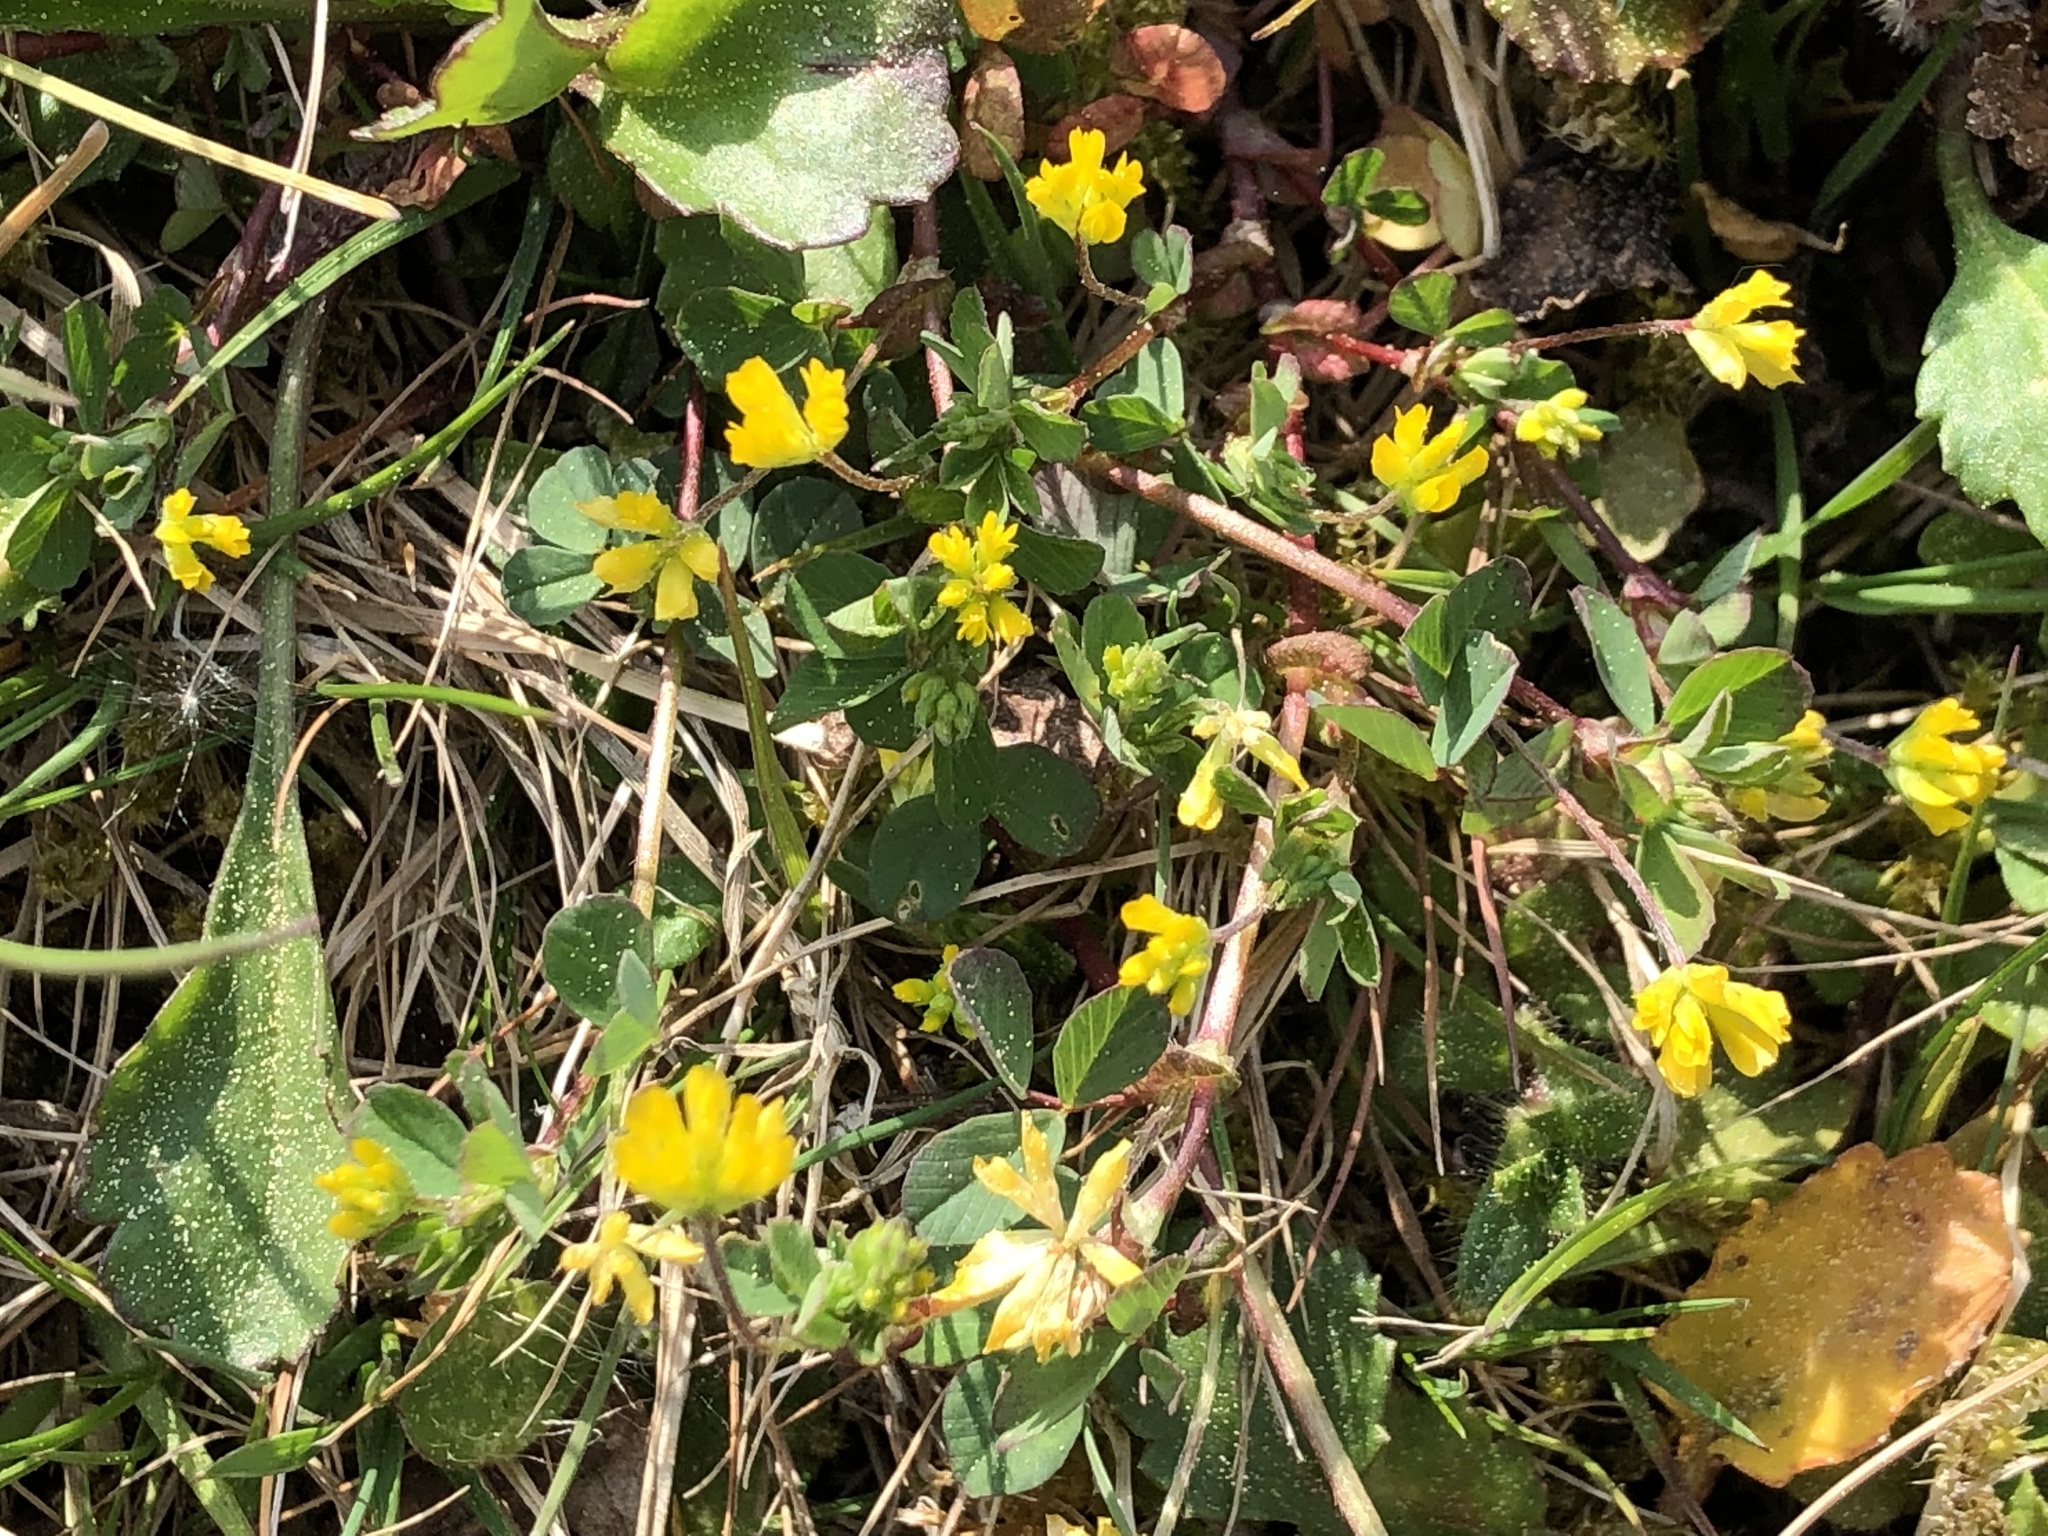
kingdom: Plantae
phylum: Tracheophyta
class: Magnoliopsida
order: Fabales
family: Fabaceae
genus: Trifolium
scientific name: Trifolium dubium
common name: Suckling clover
